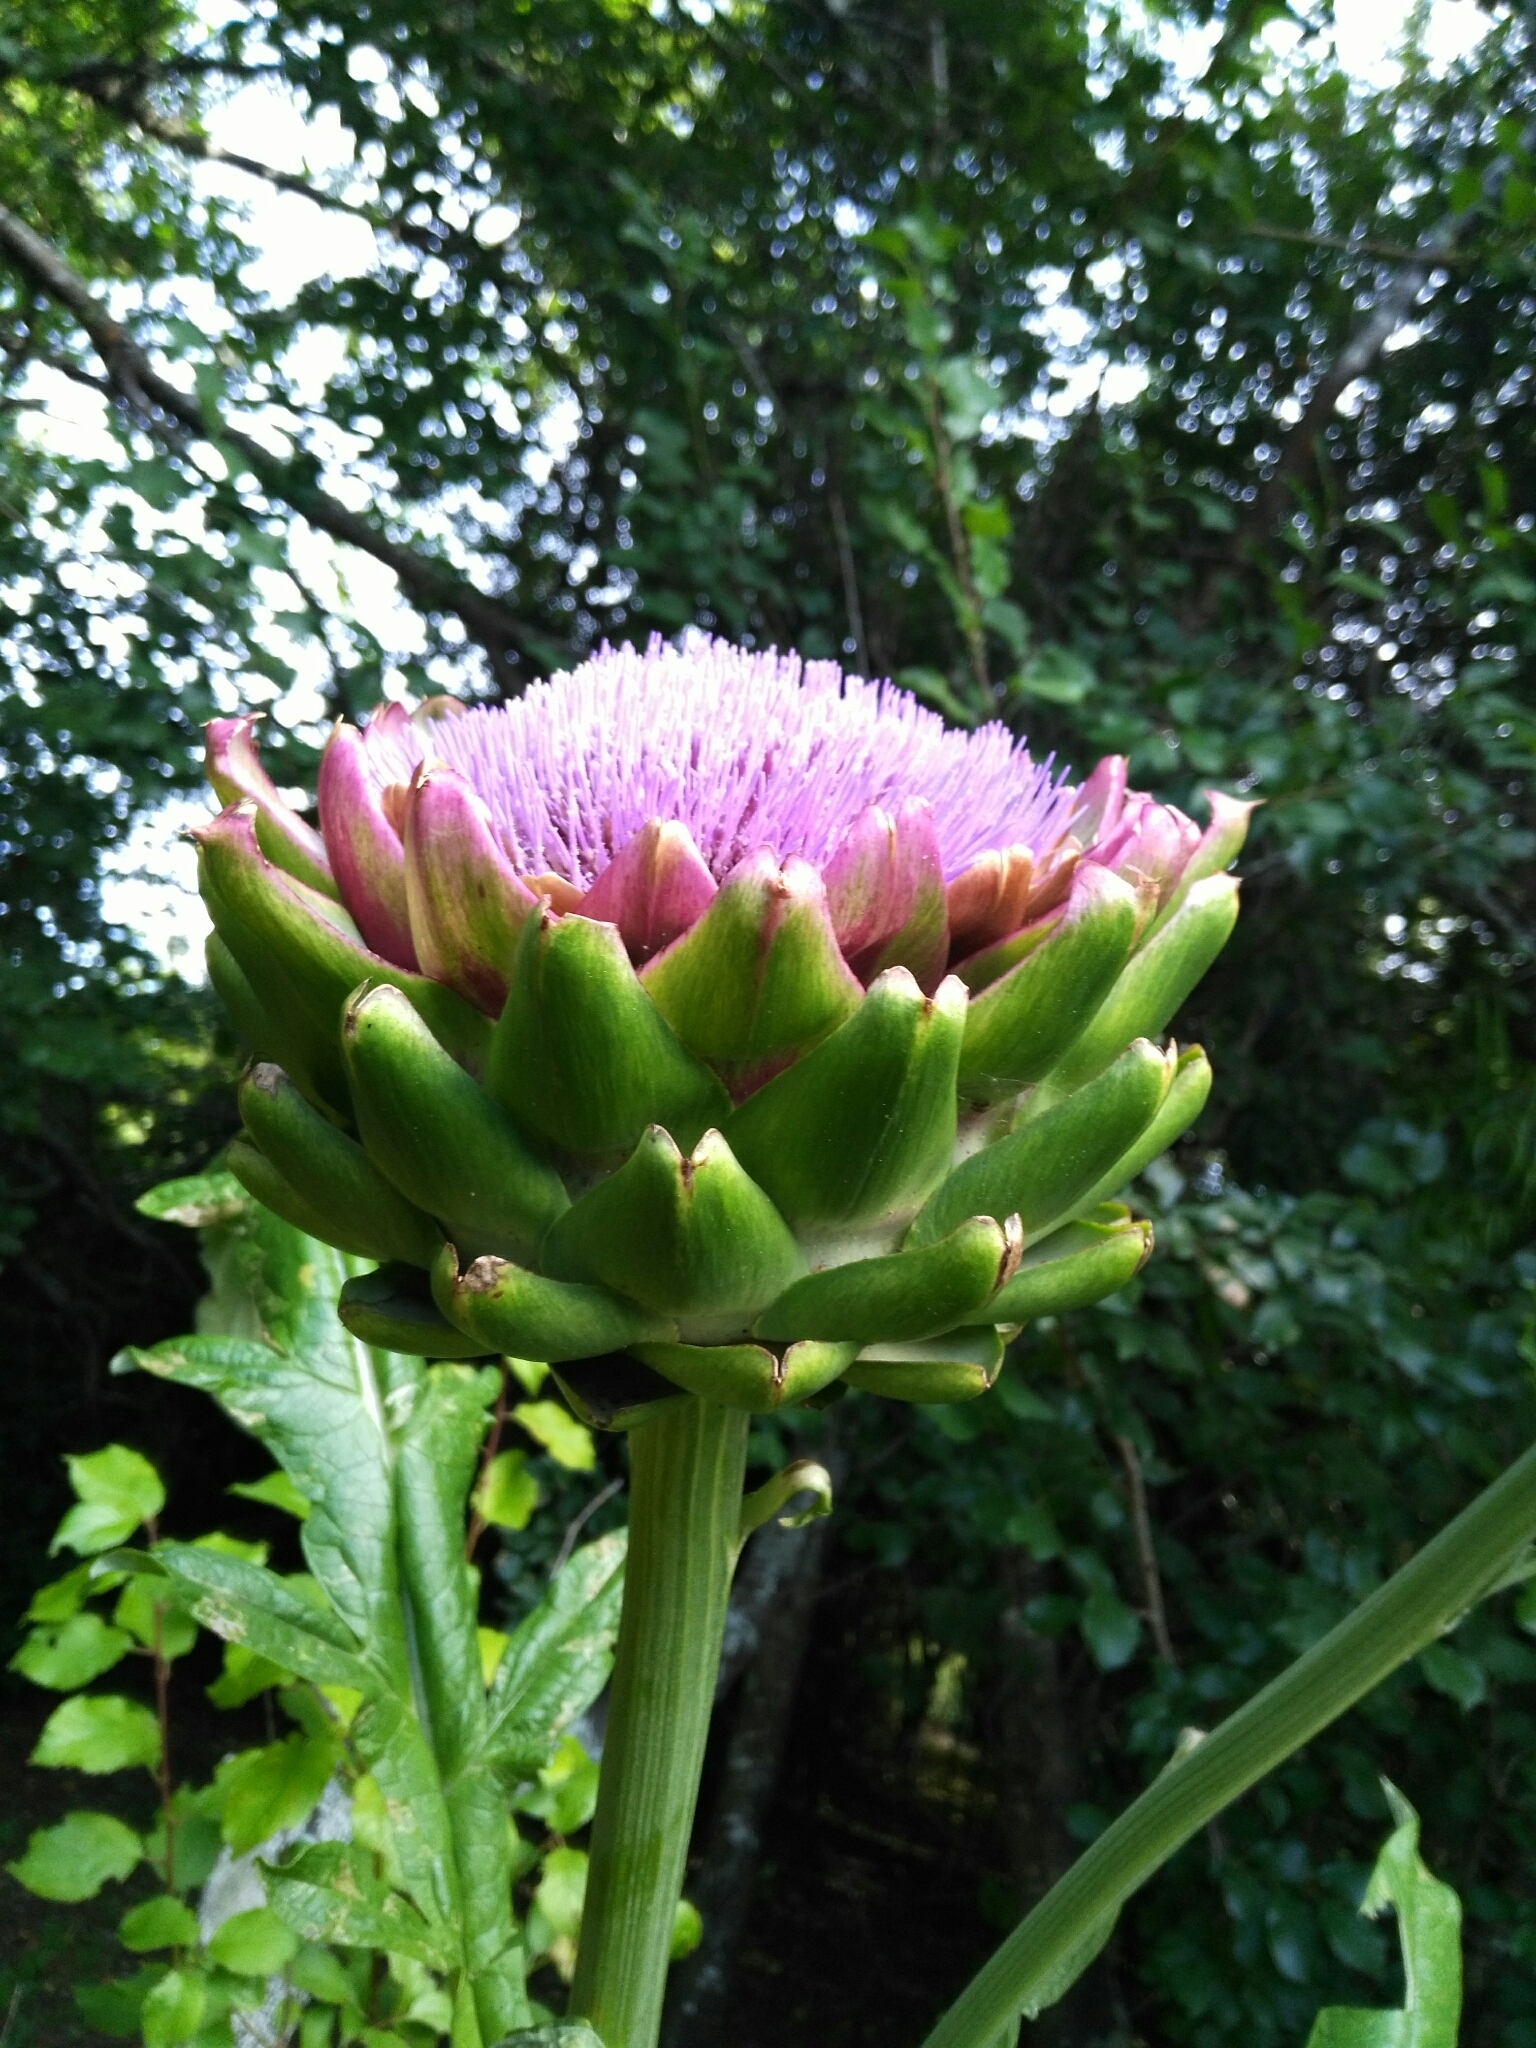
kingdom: Plantae
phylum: Tracheophyta
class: Magnoliopsida
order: Asterales
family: Asteraceae
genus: Cynara
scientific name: Cynara cardunculus
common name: Globe artichoke
